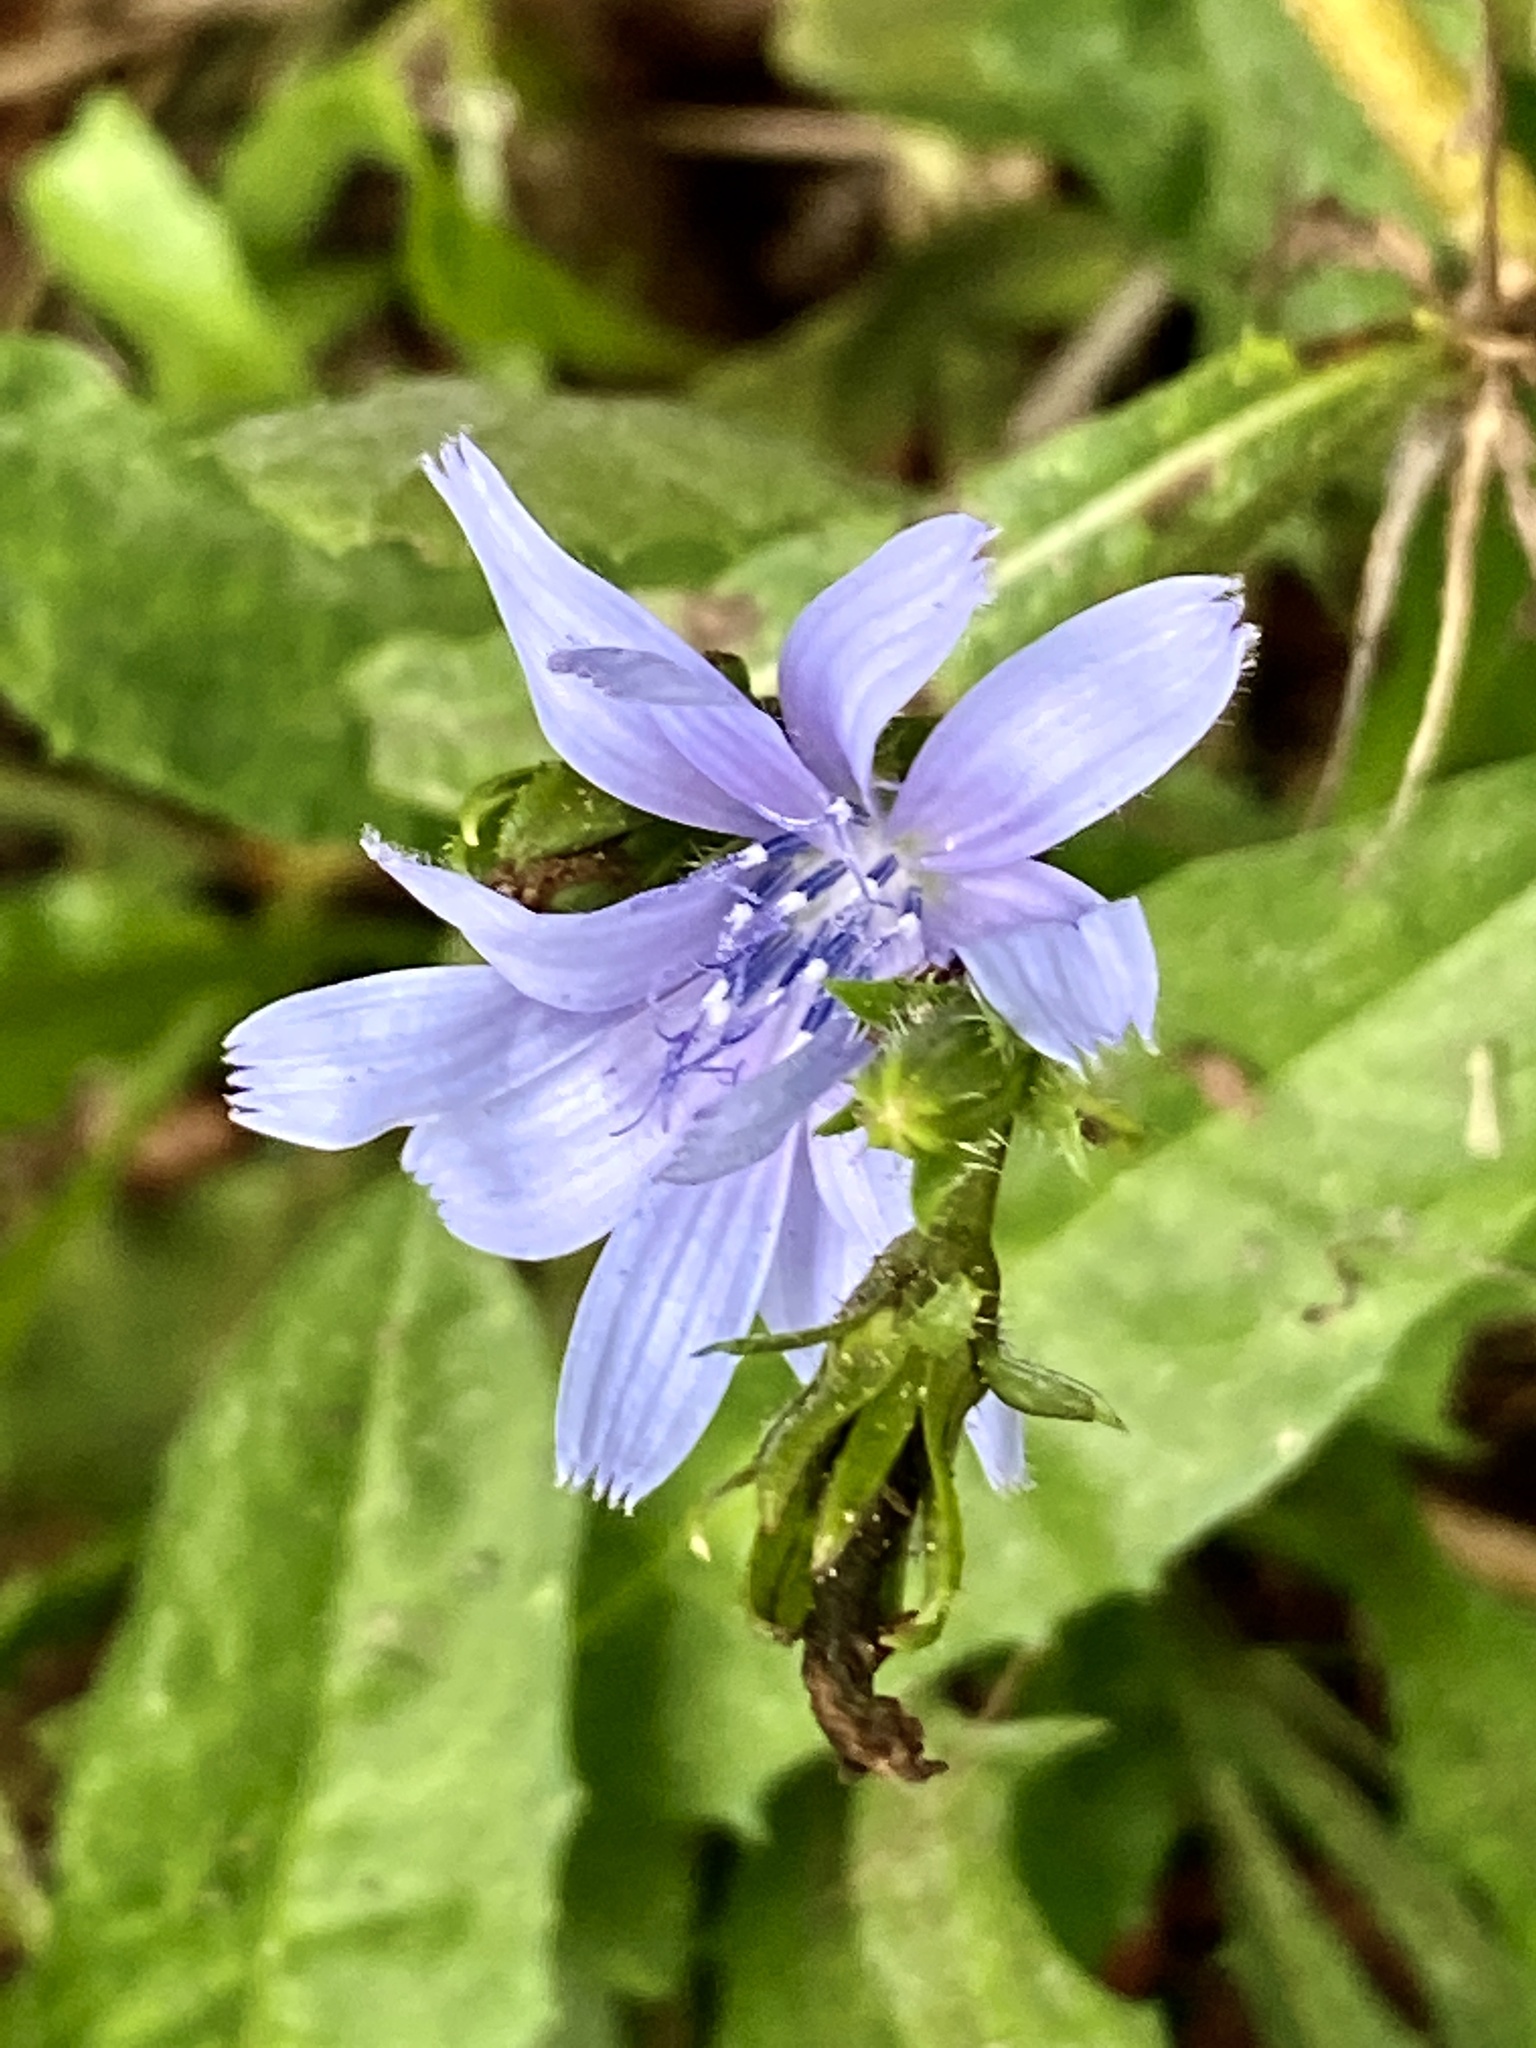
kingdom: Plantae
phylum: Tracheophyta
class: Magnoliopsida
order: Asterales
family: Asteraceae
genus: Cichorium
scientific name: Cichorium intybus
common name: Chicory
